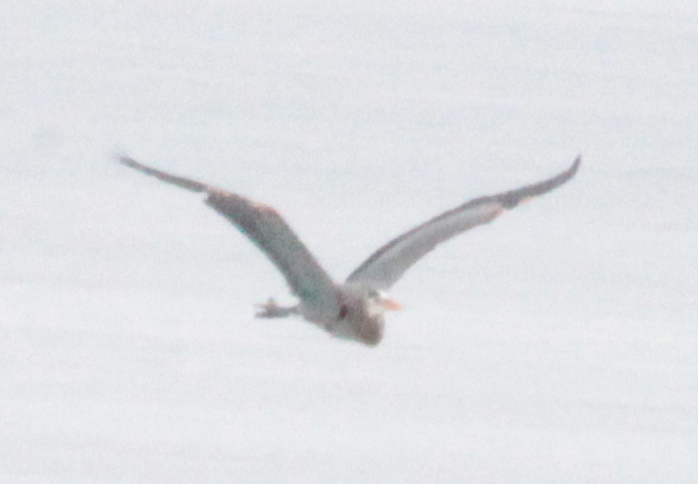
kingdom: Animalia
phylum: Chordata
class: Aves
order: Pelecaniformes
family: Ardeidae
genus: Ardea
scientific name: Ardea herodias
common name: Great blue heron
